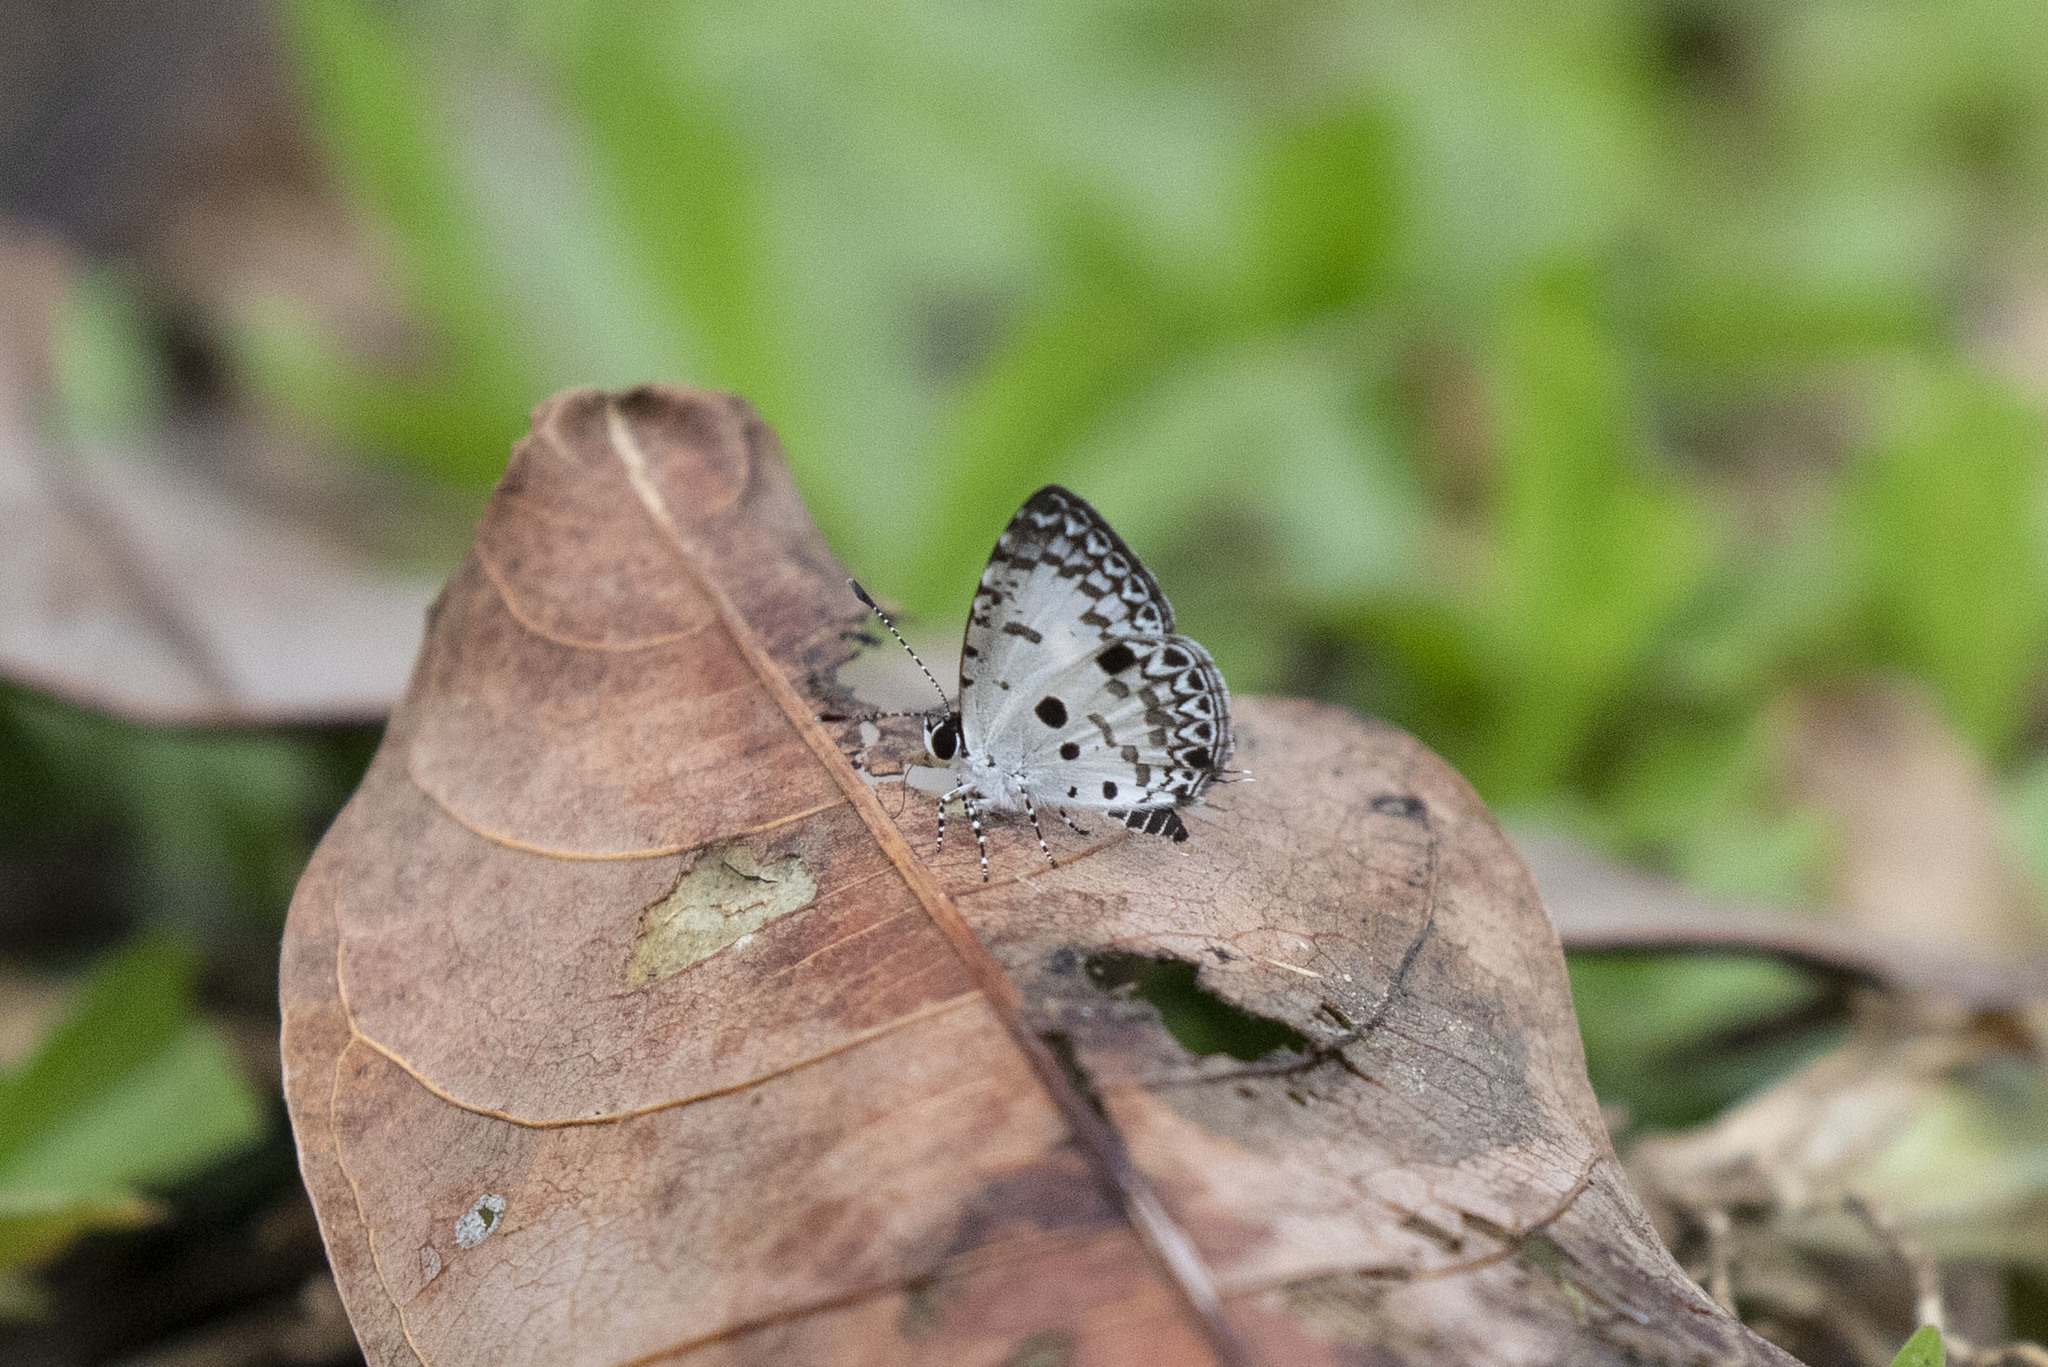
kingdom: Animalia
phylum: Arthropoda
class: Insecta
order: Lepidoptera
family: Lycaenidae
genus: Megisba
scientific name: Megisba malaya
